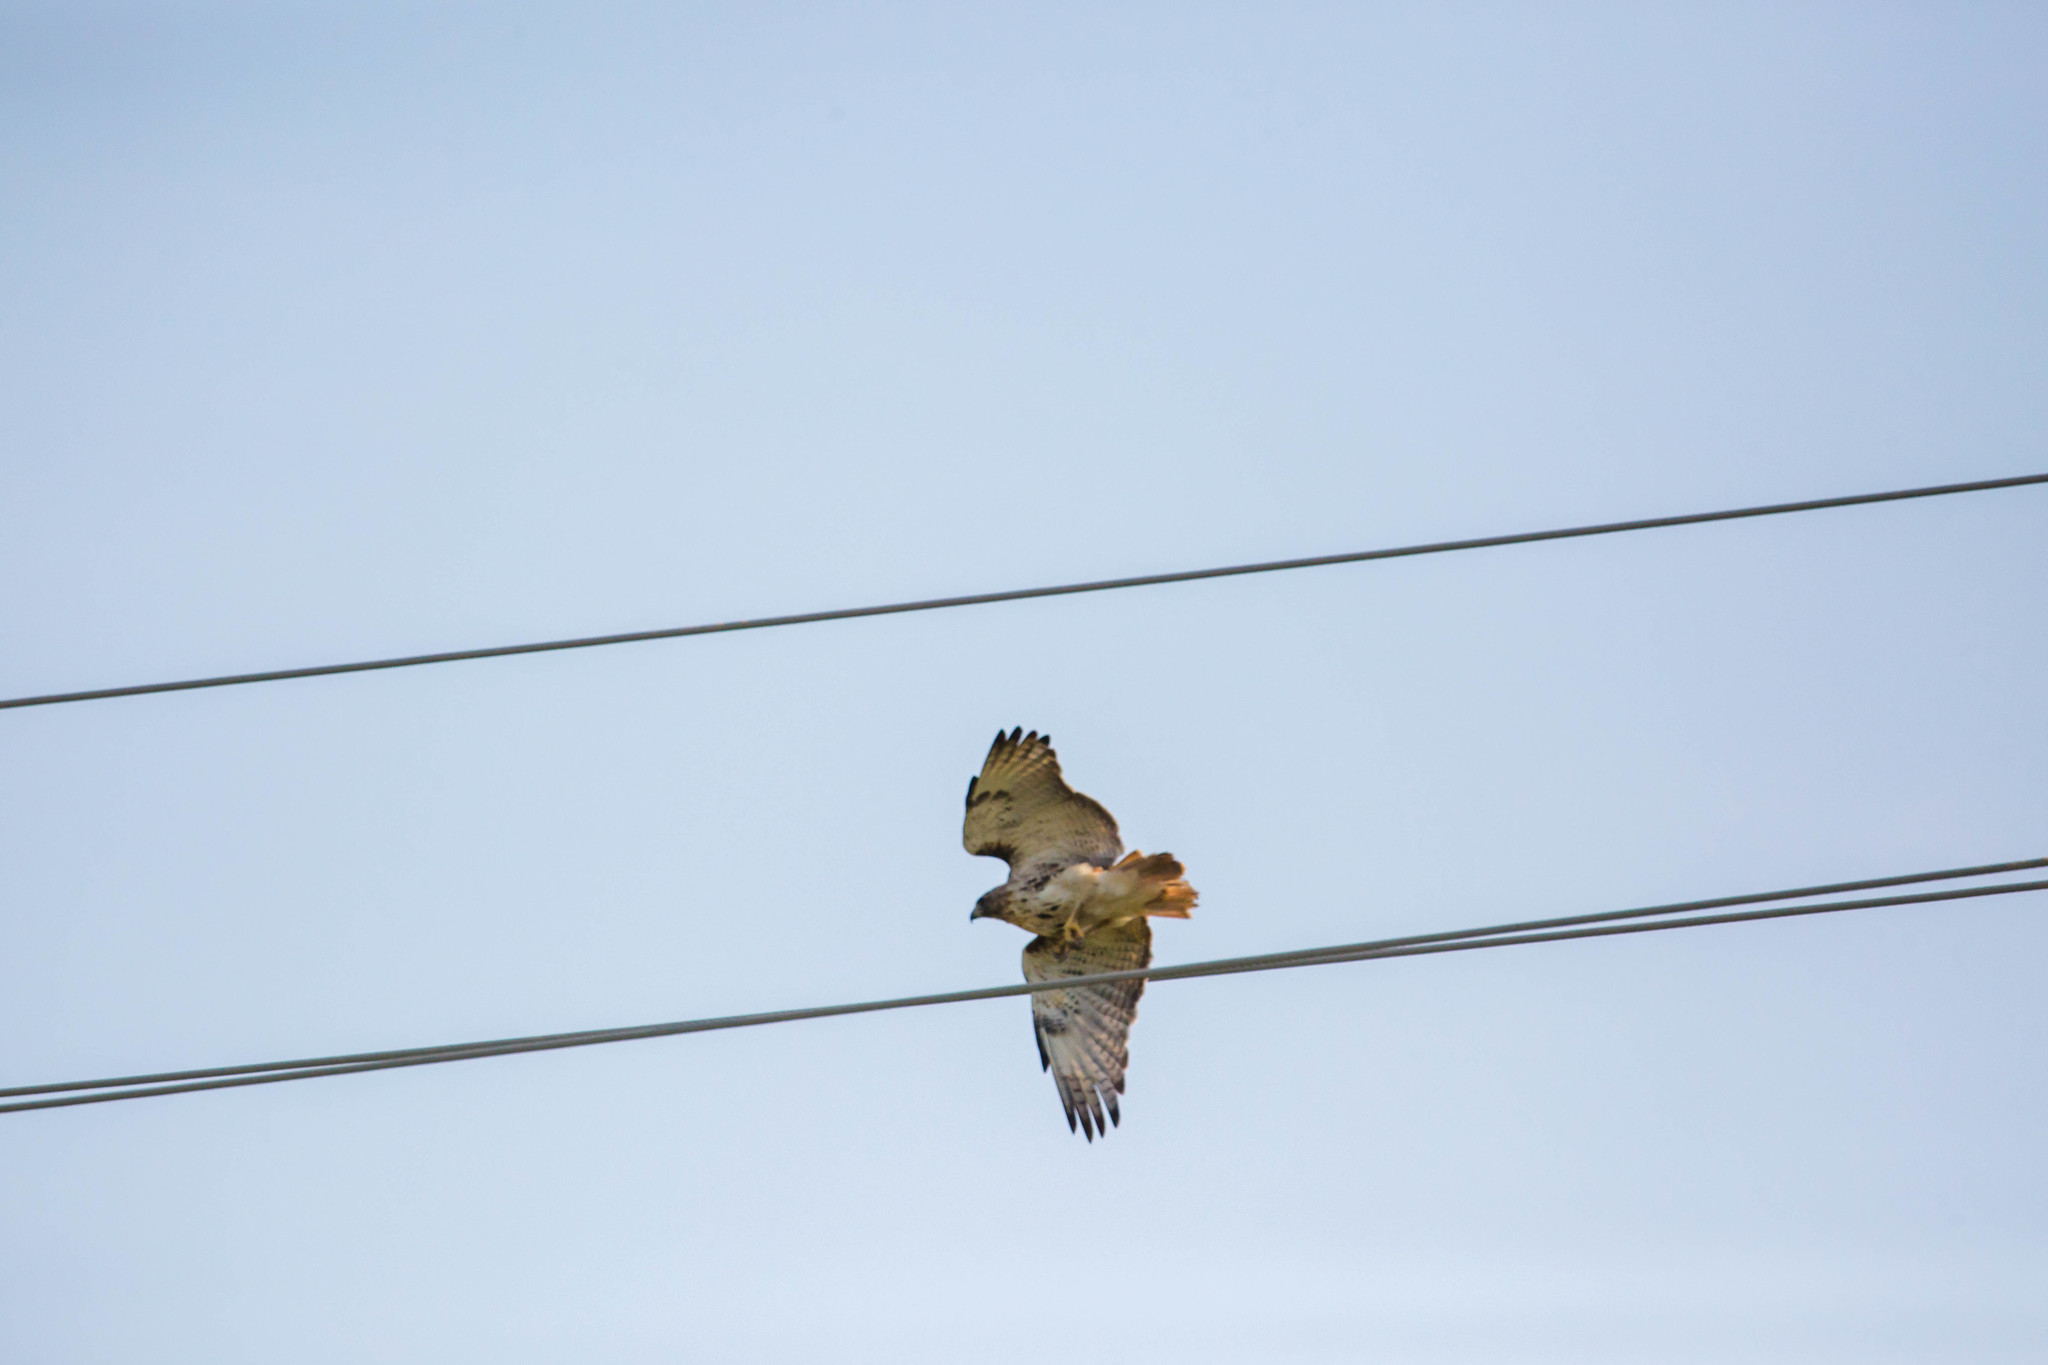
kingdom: Animalia
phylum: Chordata
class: Aves
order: Accipitriformes
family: Accipitridae
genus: Buteo
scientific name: Buteo jamaicensis
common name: Red-tailed hawk
